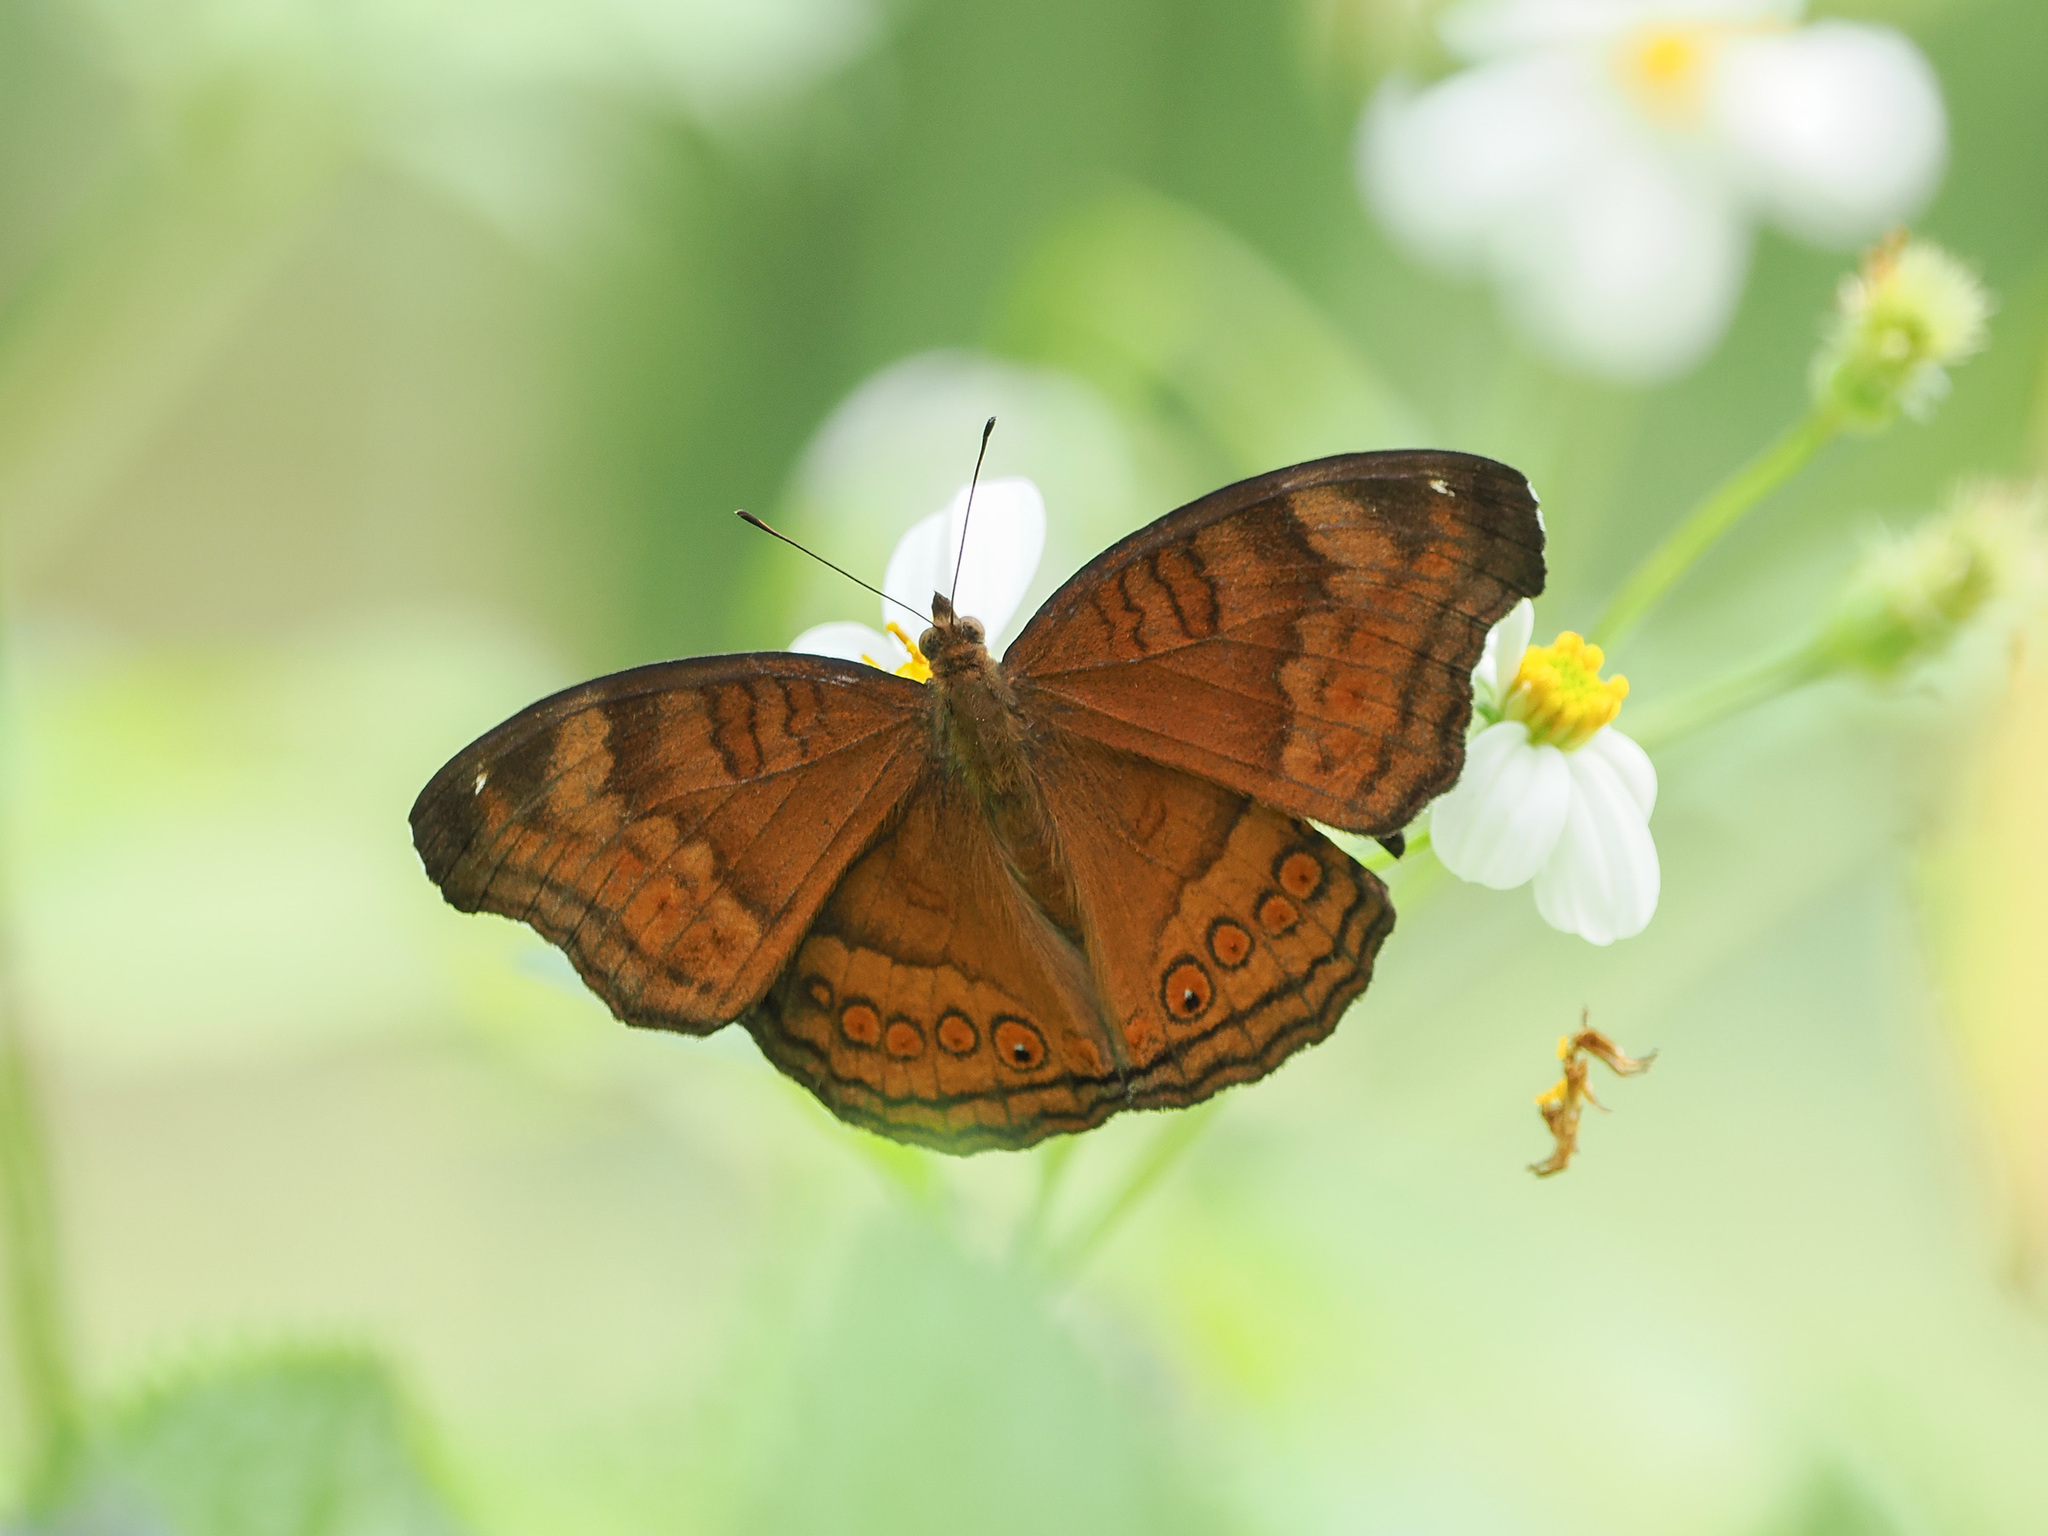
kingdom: Animalia
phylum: Arthropoda
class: Insecta
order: Lepidoptera
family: Nymphalidae
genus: Junonia
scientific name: Junonia hedonia
